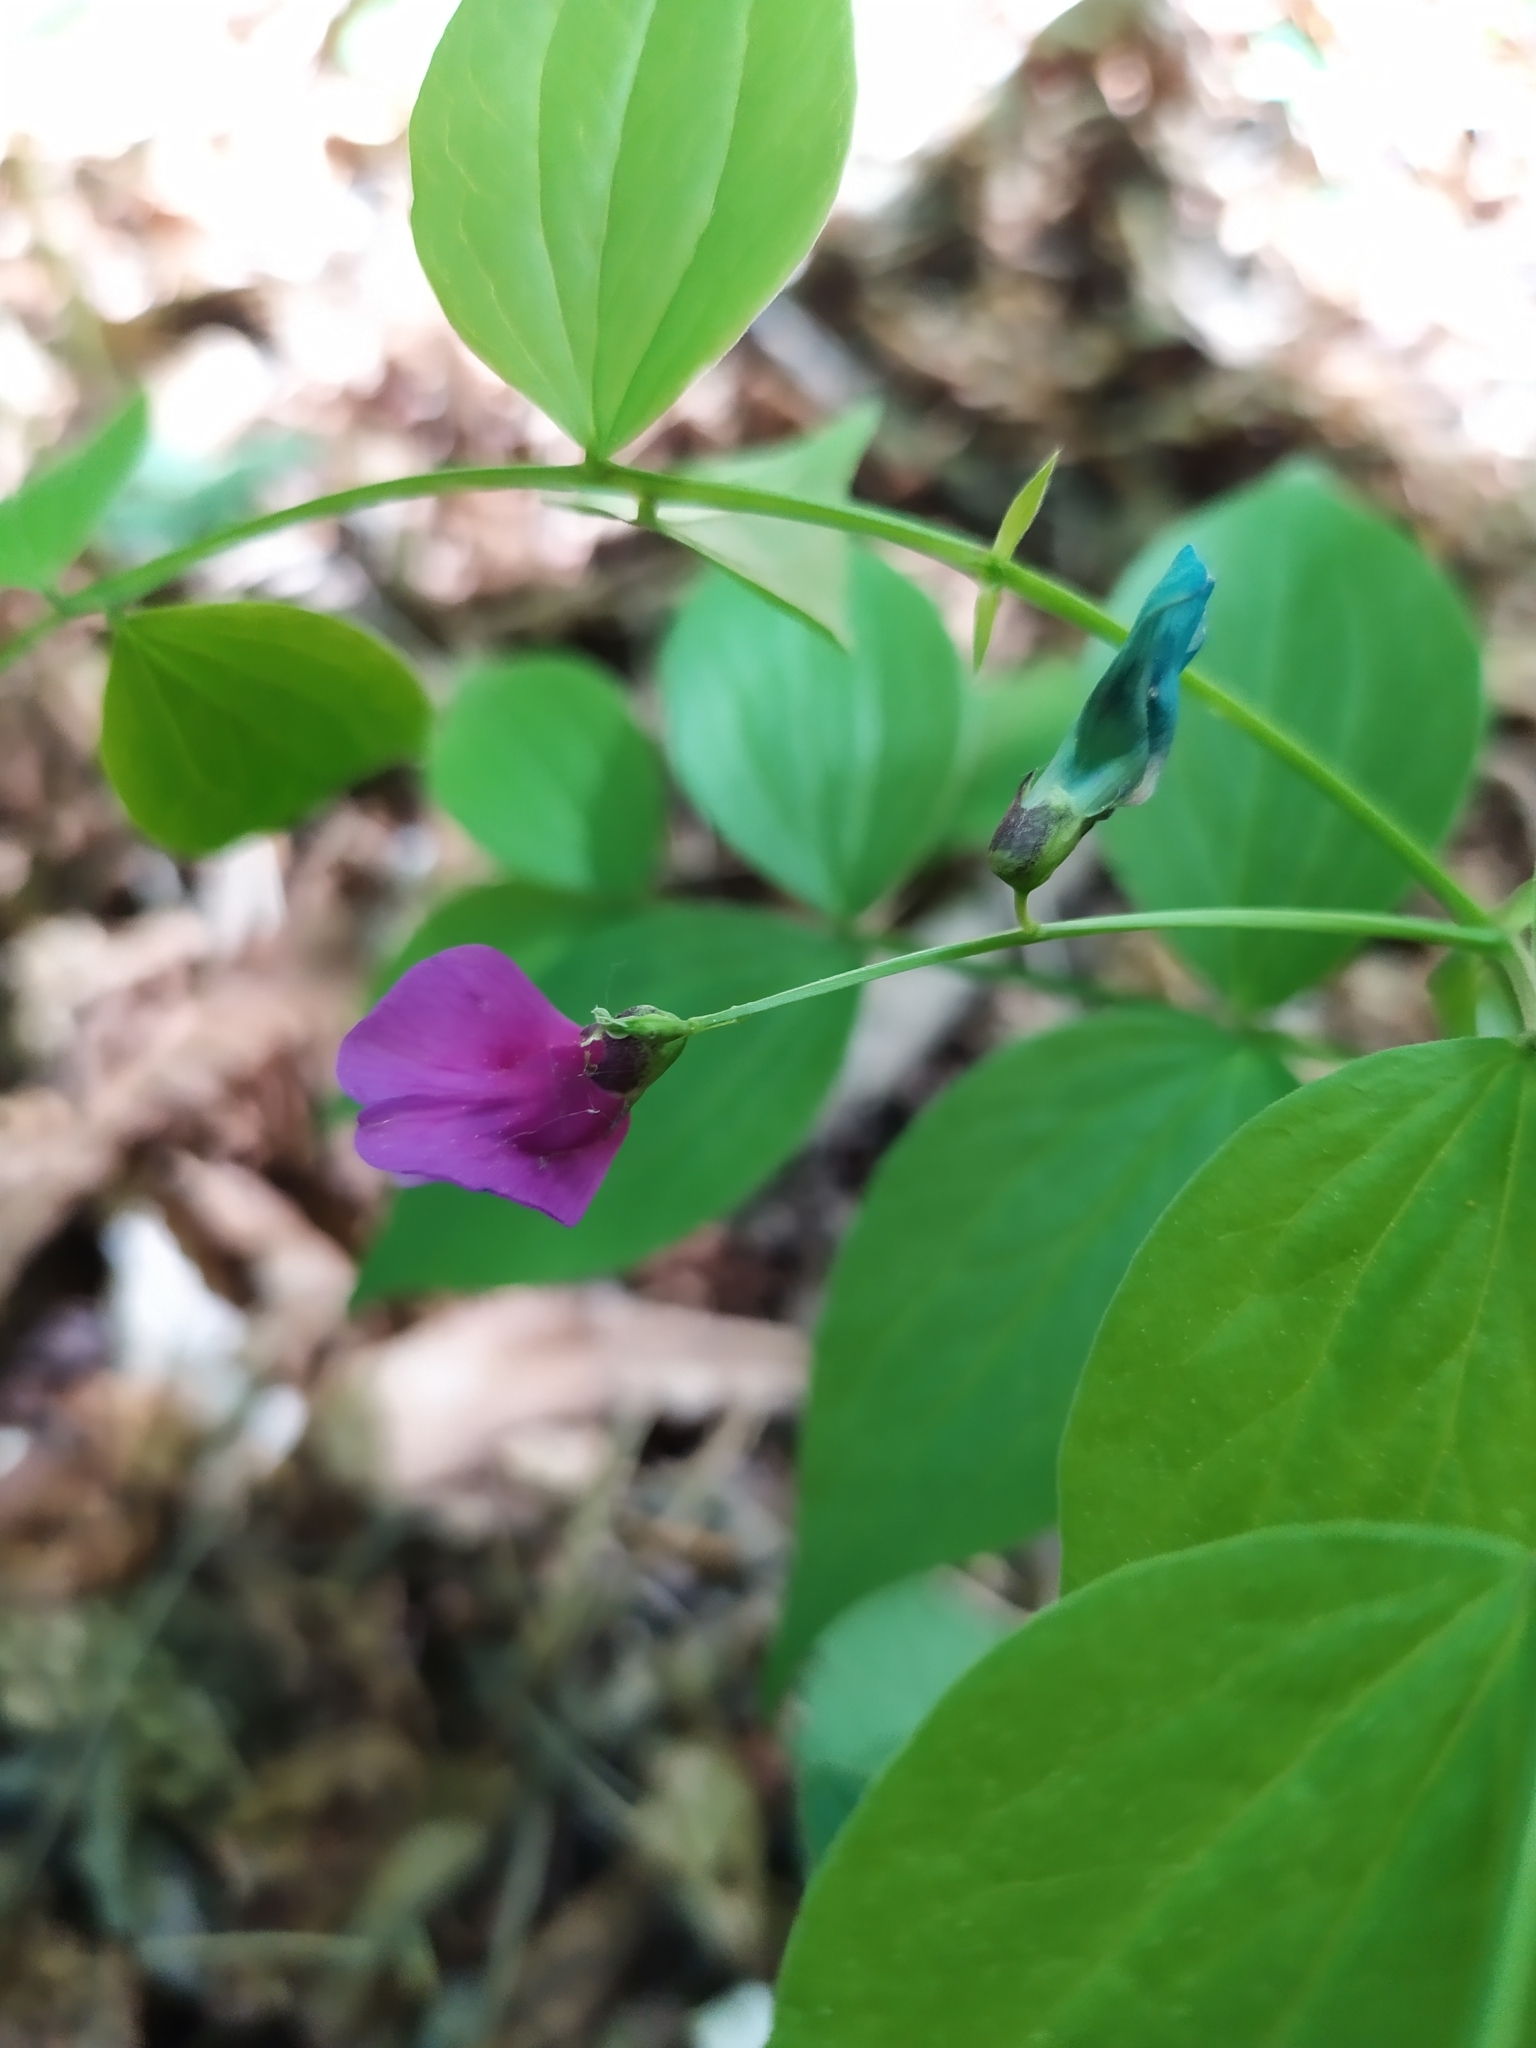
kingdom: Plantae
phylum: Tracheophyta
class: Magnoliopsida
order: Fabales
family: Fabaceae
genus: Lathyrus
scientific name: Lathyrus vernus
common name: Spring pea
